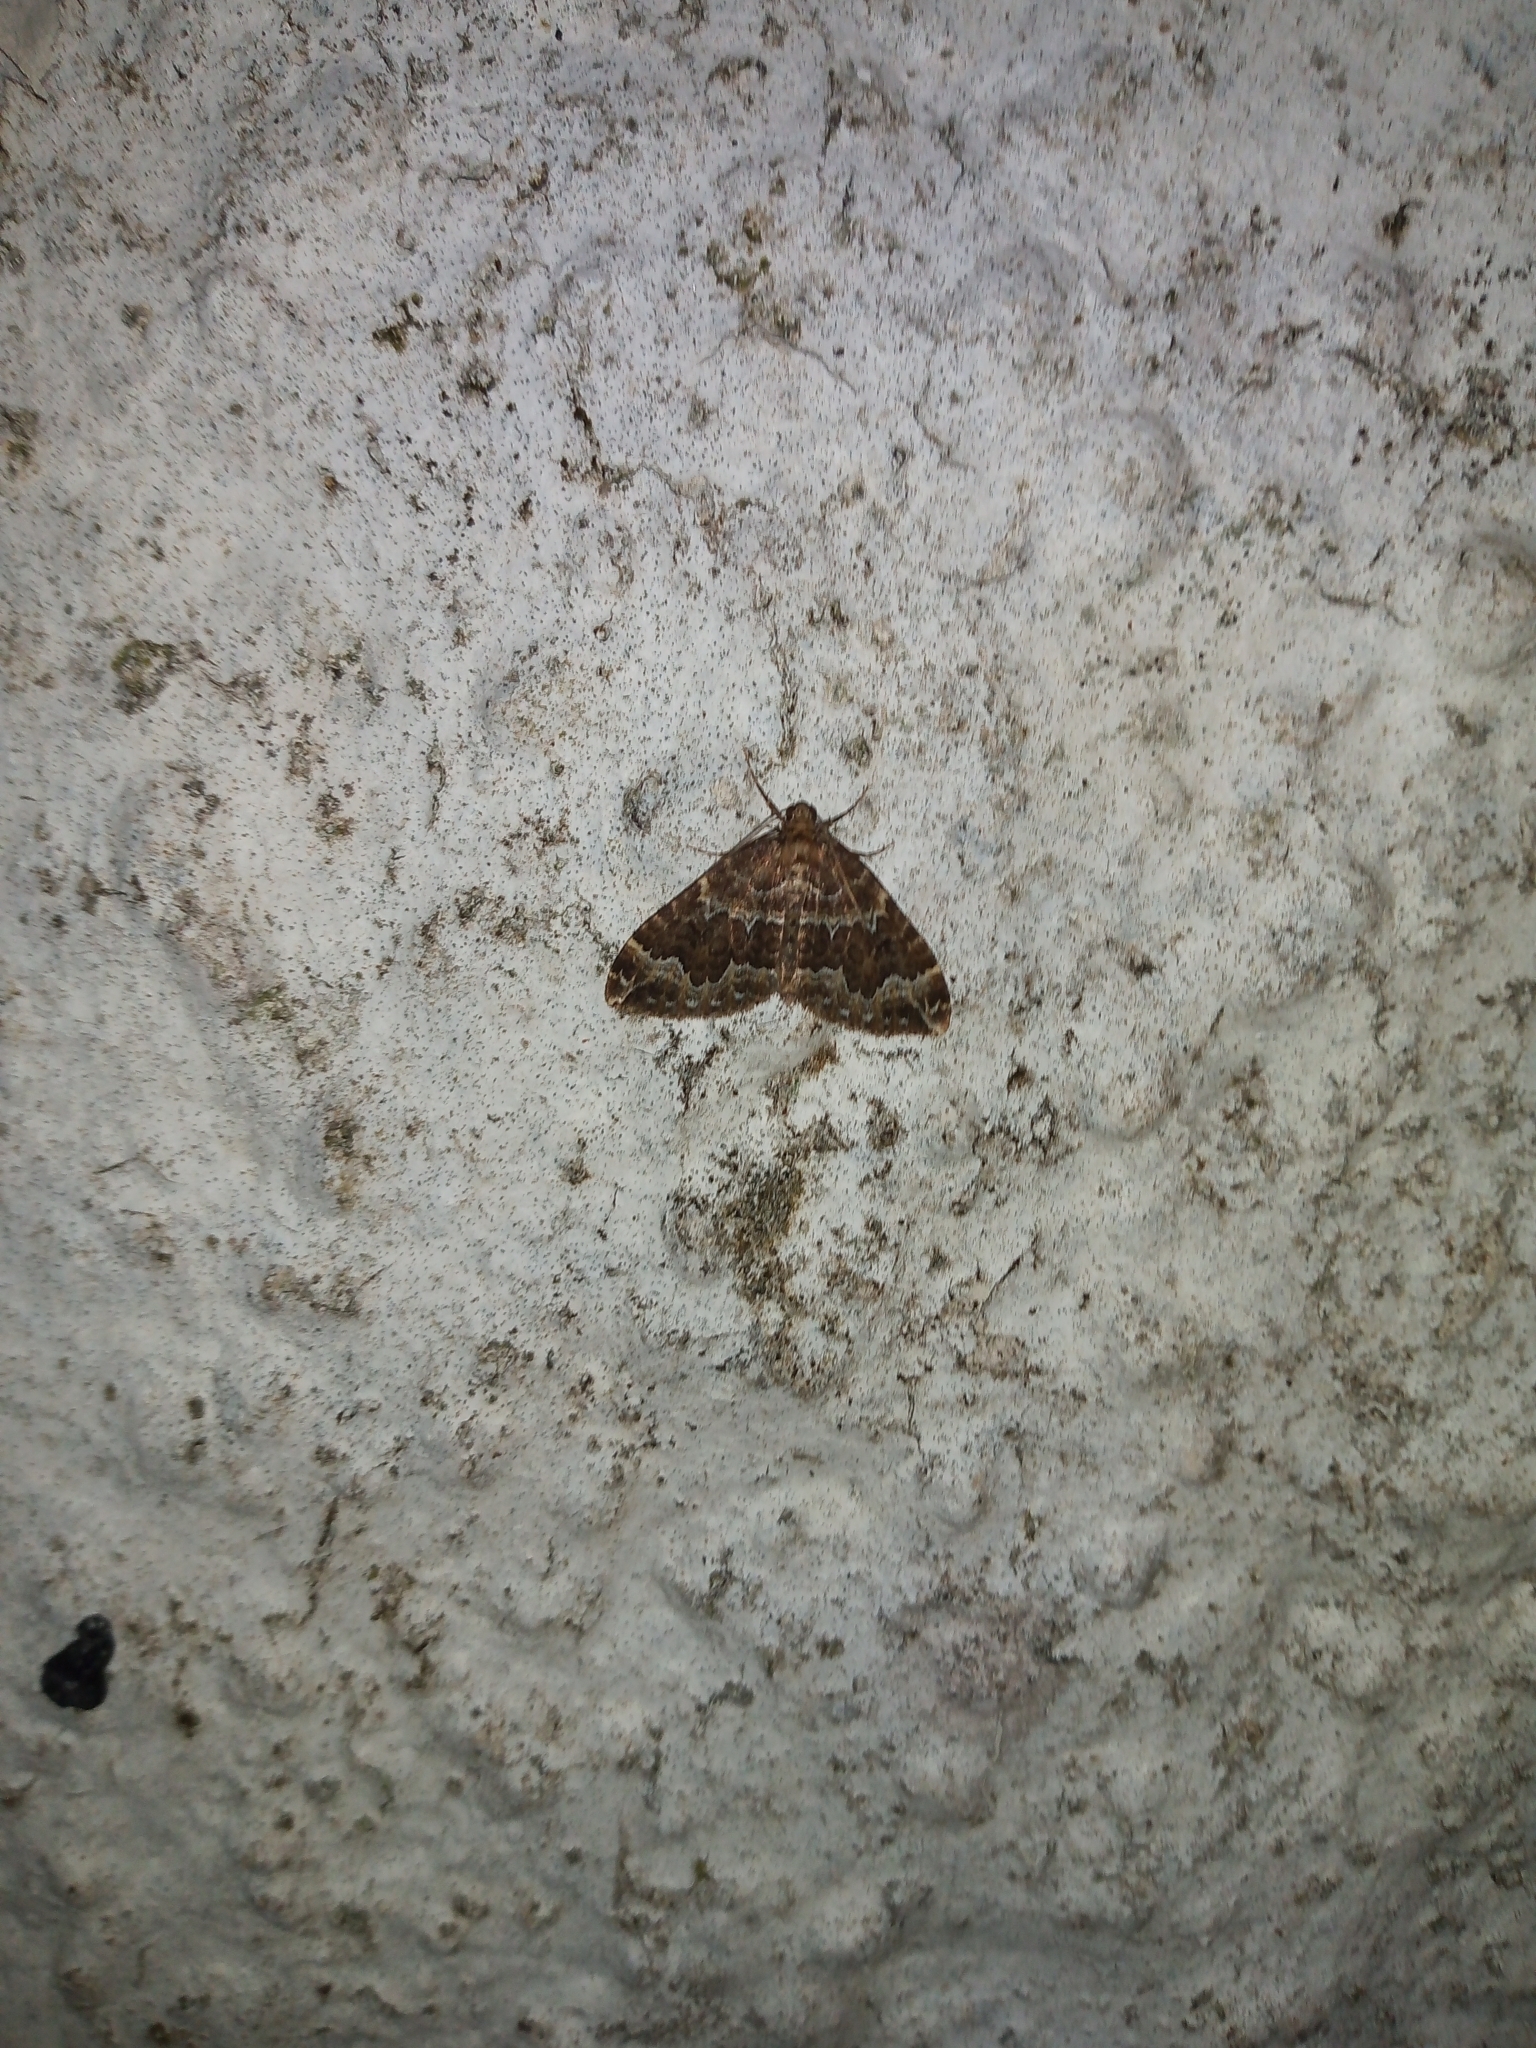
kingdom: Animalia
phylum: Arthropoda
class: Insecta
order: Lepidoptera
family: Geometridae
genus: Lampropteryx
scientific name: Lampropteryx suffumata
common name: Water carpet
